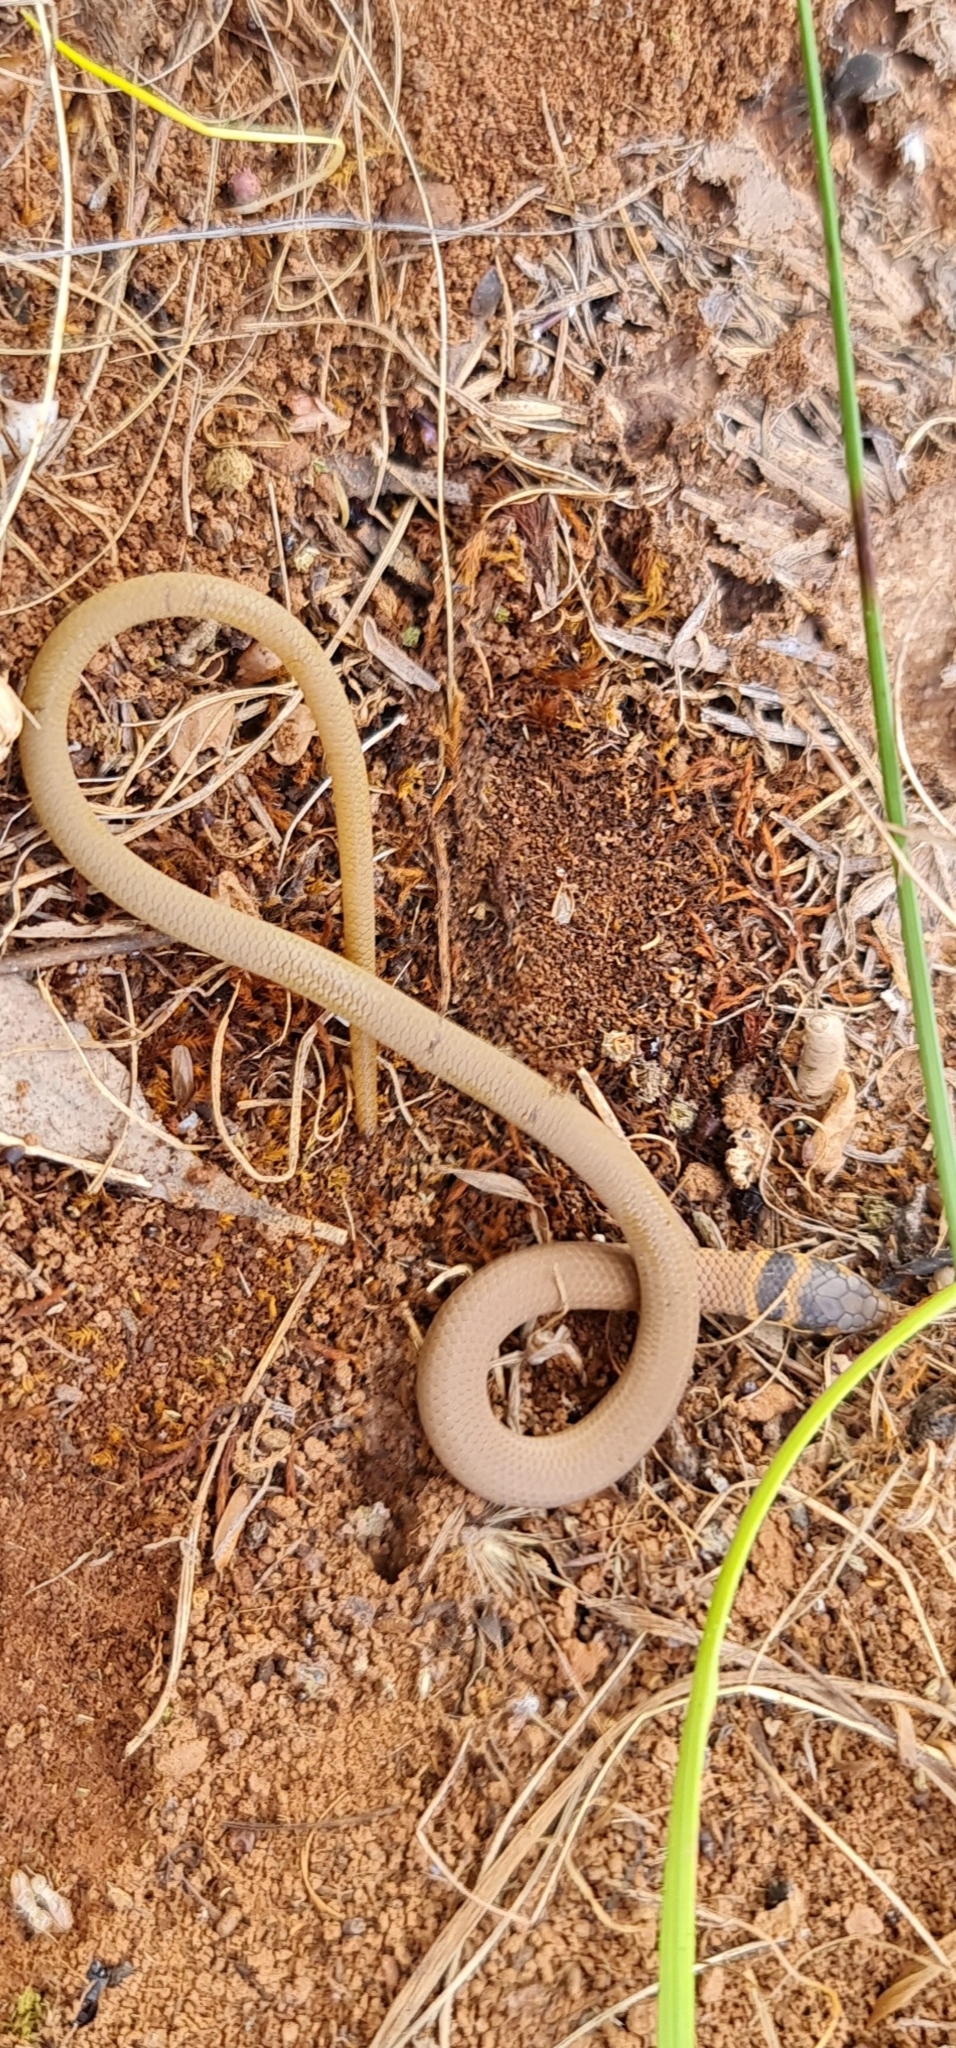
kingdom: Animalia
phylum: Chordata
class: Squamata
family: Pygopodidae
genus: Delma
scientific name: Delma molleri
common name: Gulfs delma
